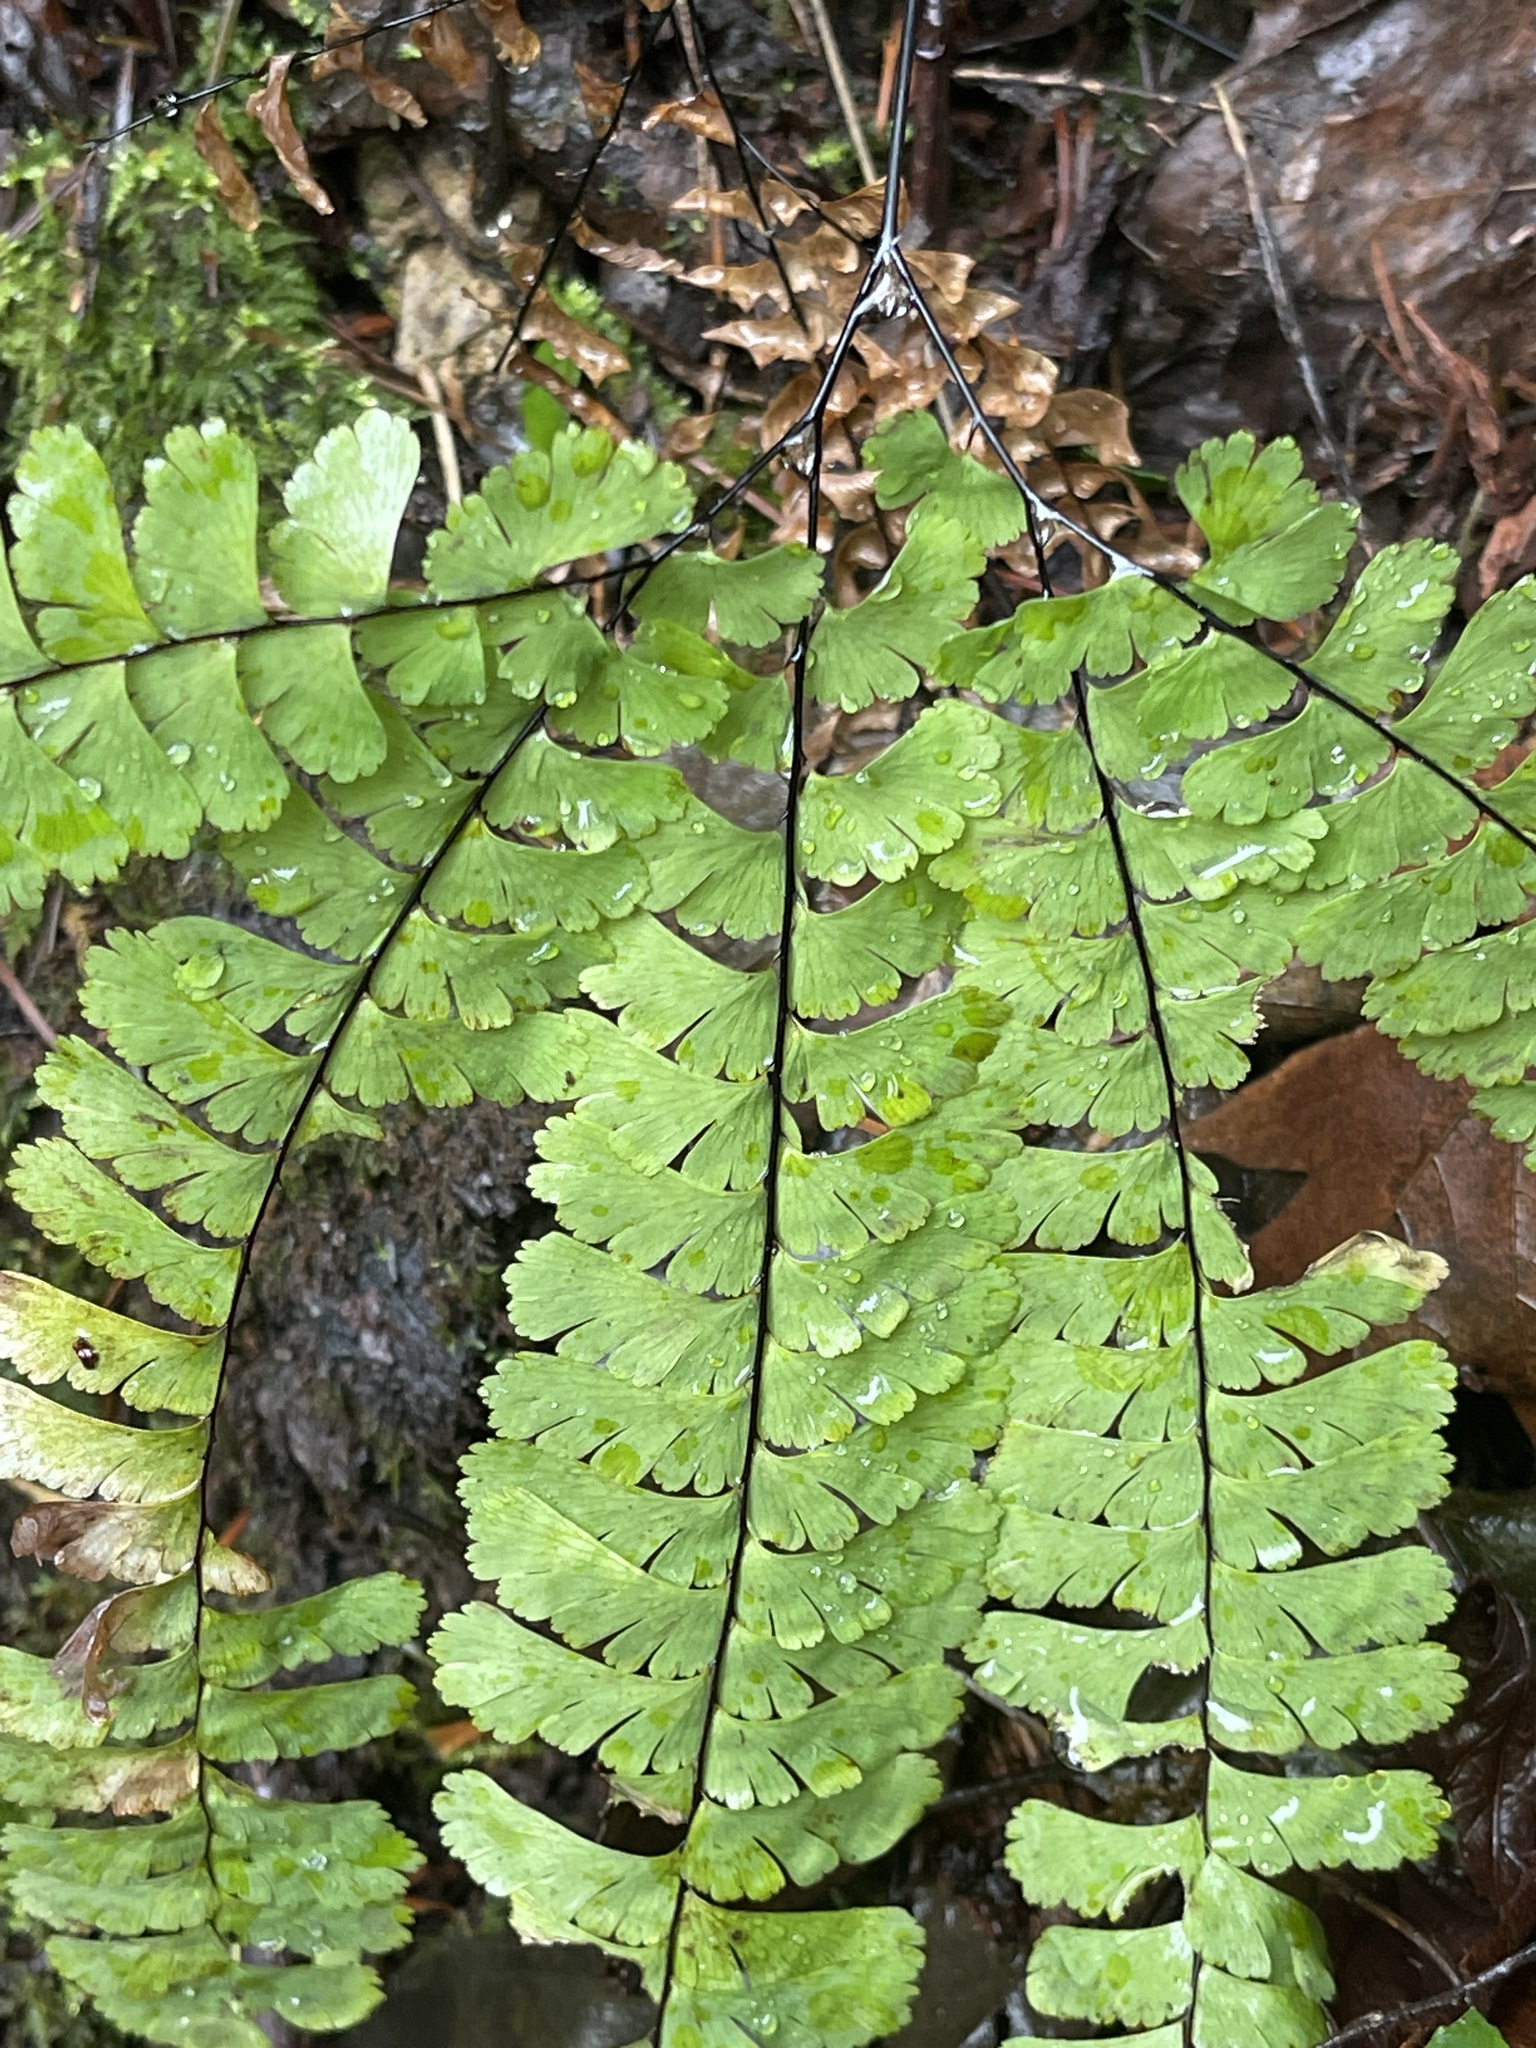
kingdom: Plantae
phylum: Tracheophyta
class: Polypodiopsida
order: Polypodiales
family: Pteridaceae
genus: Adiantum
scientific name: Adiantum aleuticum
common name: Aleutian maidenhair fern
